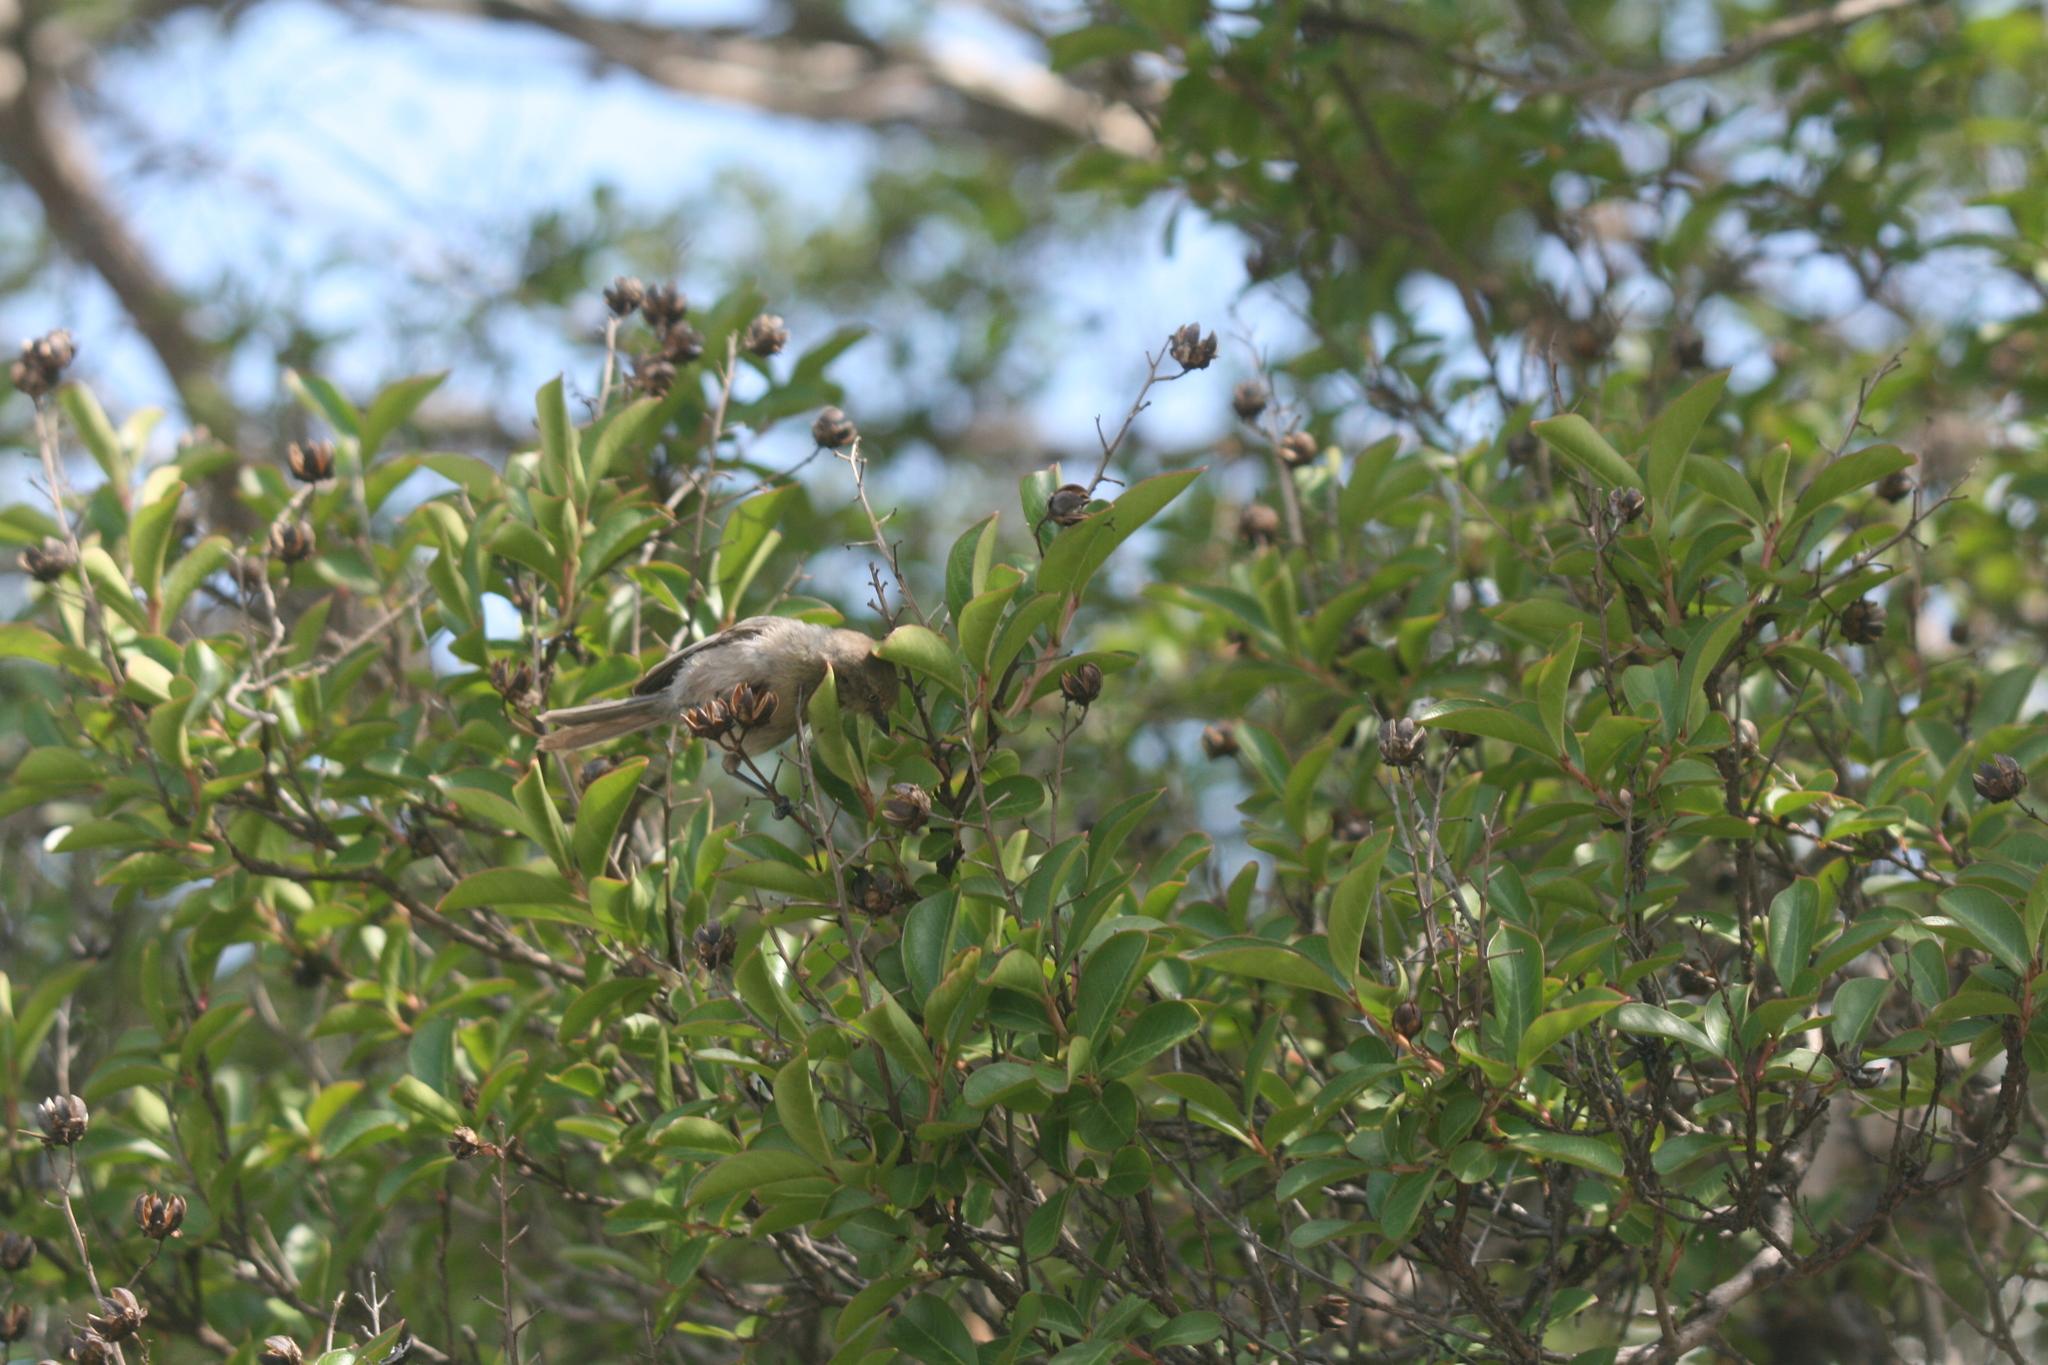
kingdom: Animalia
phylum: Chordata
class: Aves
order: Passeriformes
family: Aegithalidae
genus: Psaltriparus
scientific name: Psaltriparus minimus
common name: American bushtit
